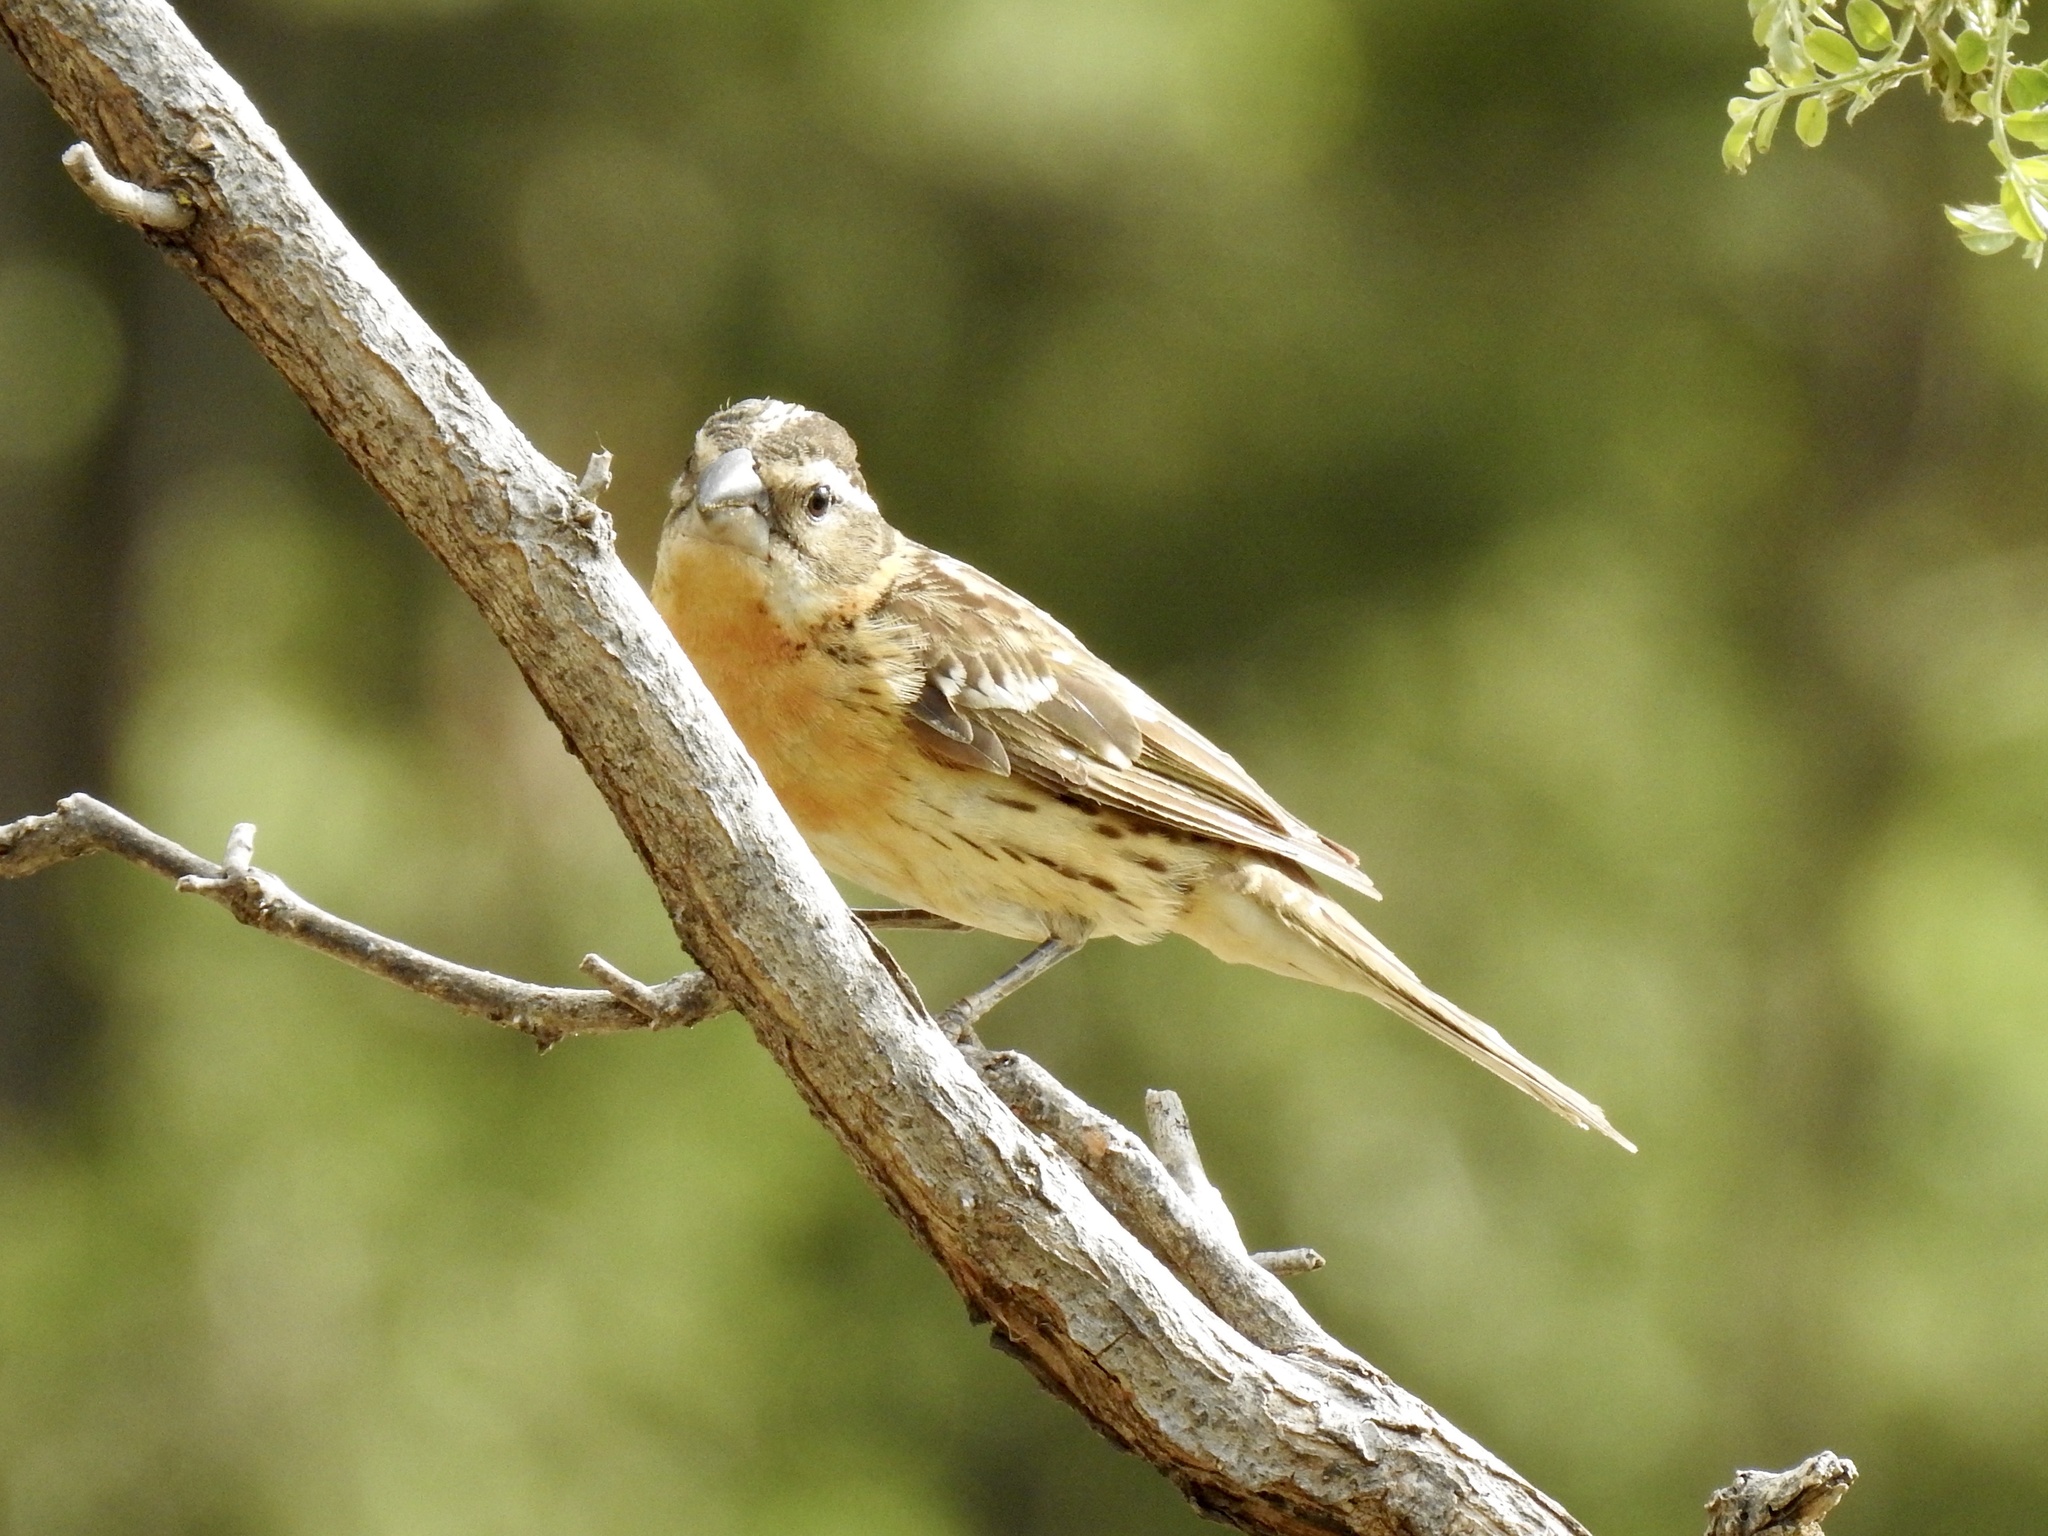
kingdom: Animalia
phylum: Chordata
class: Aves
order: Passeriformes
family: Cardinalidae
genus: Pheucticus
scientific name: Pheucticus melanocephalus
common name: Black-headed grosbeak
